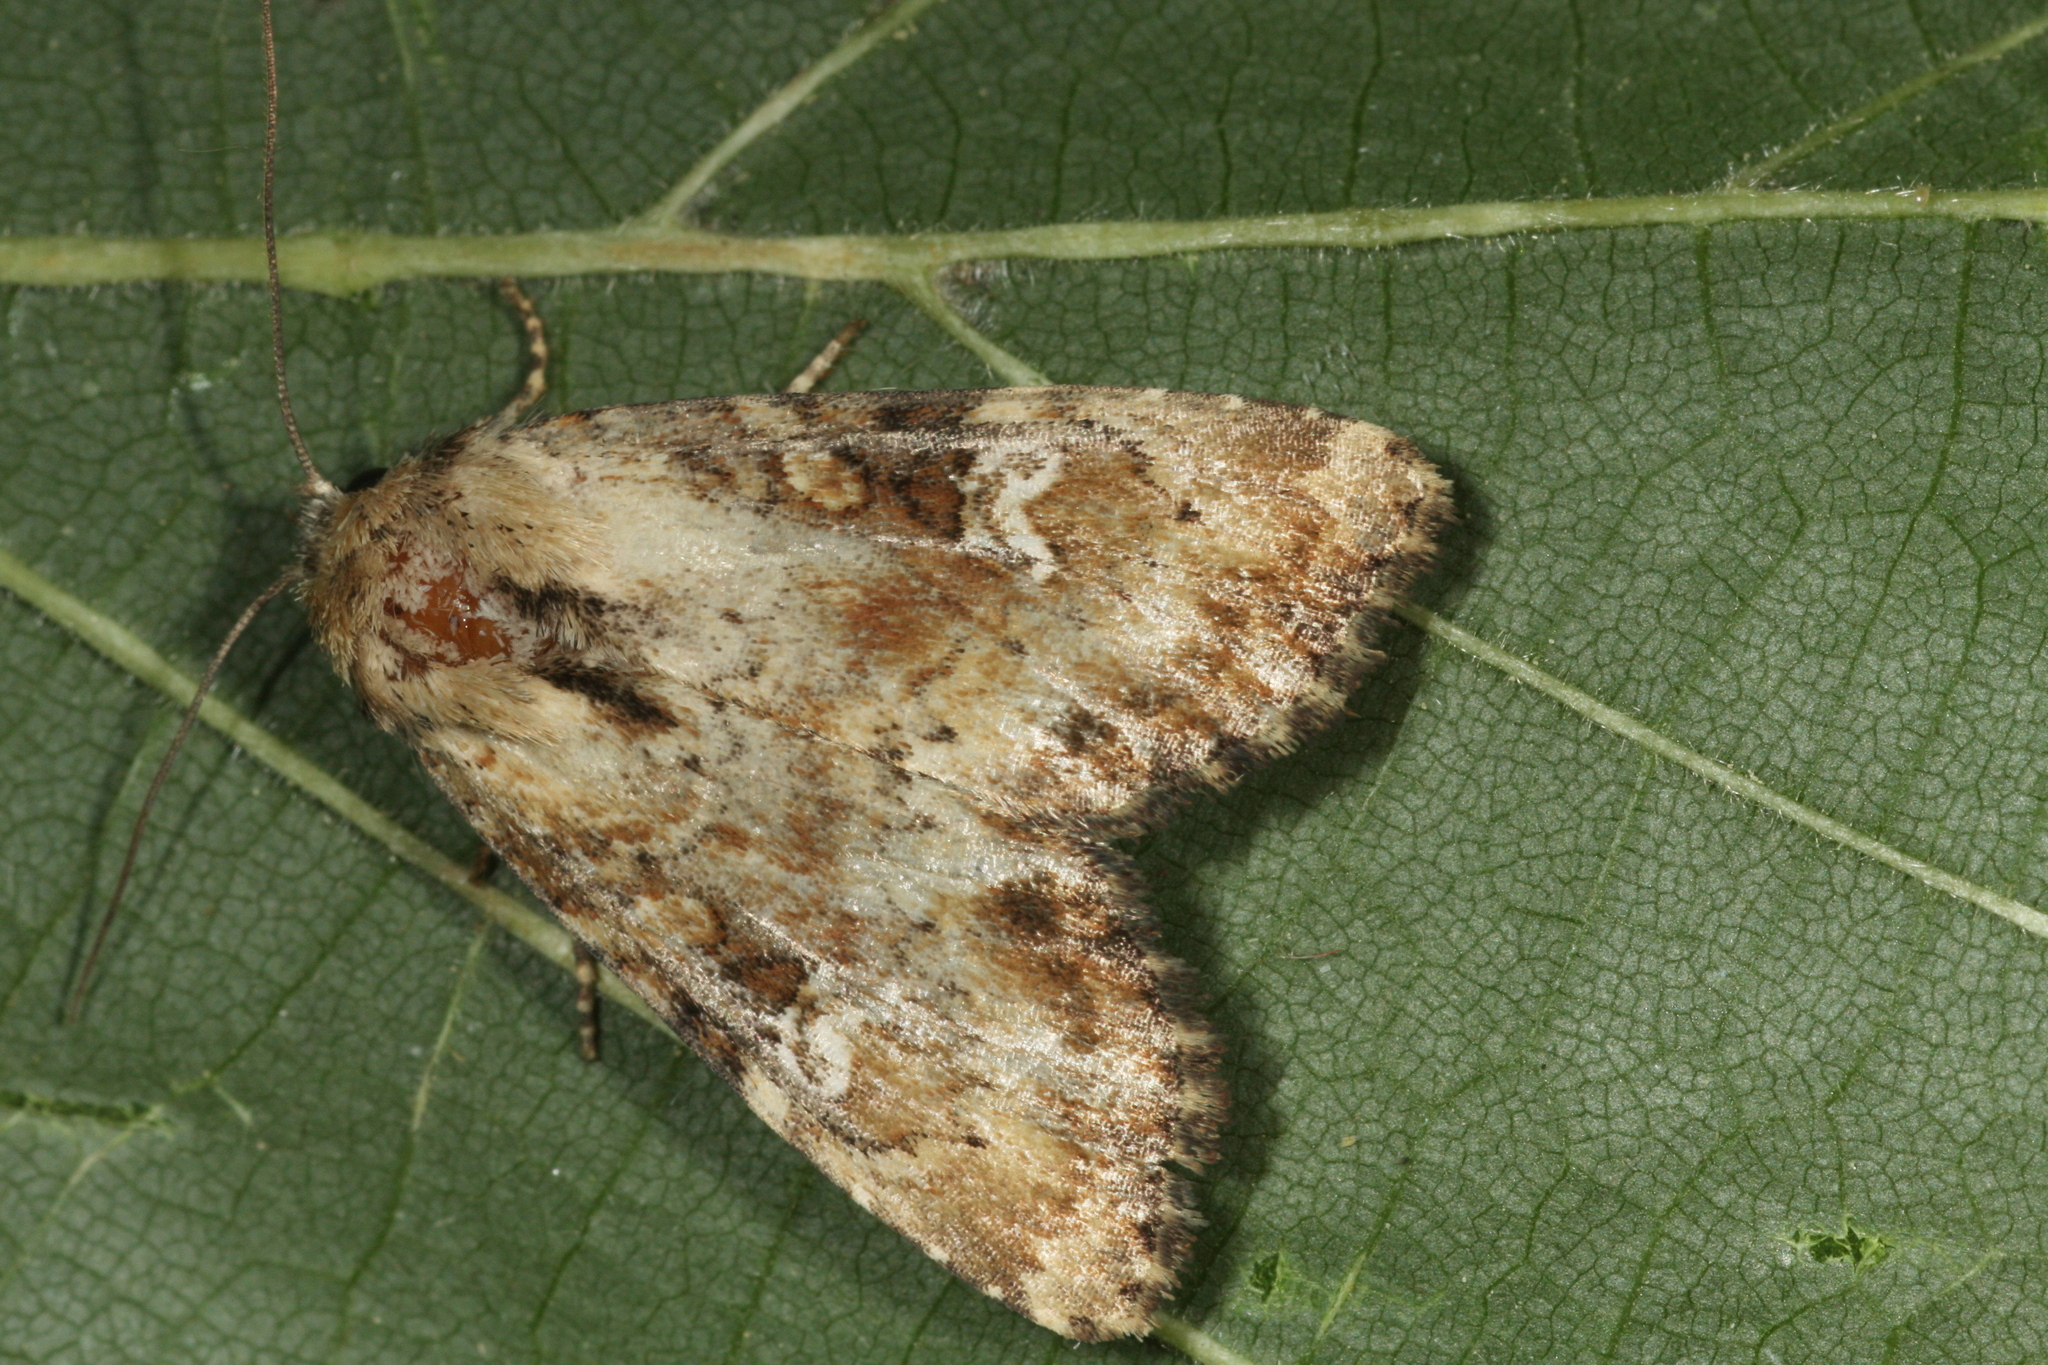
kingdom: Animalia
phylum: Arthropoda
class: Insecta
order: Lepidoptera
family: Noctuidae
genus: Loscopia
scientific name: Loscopia scolopacina
